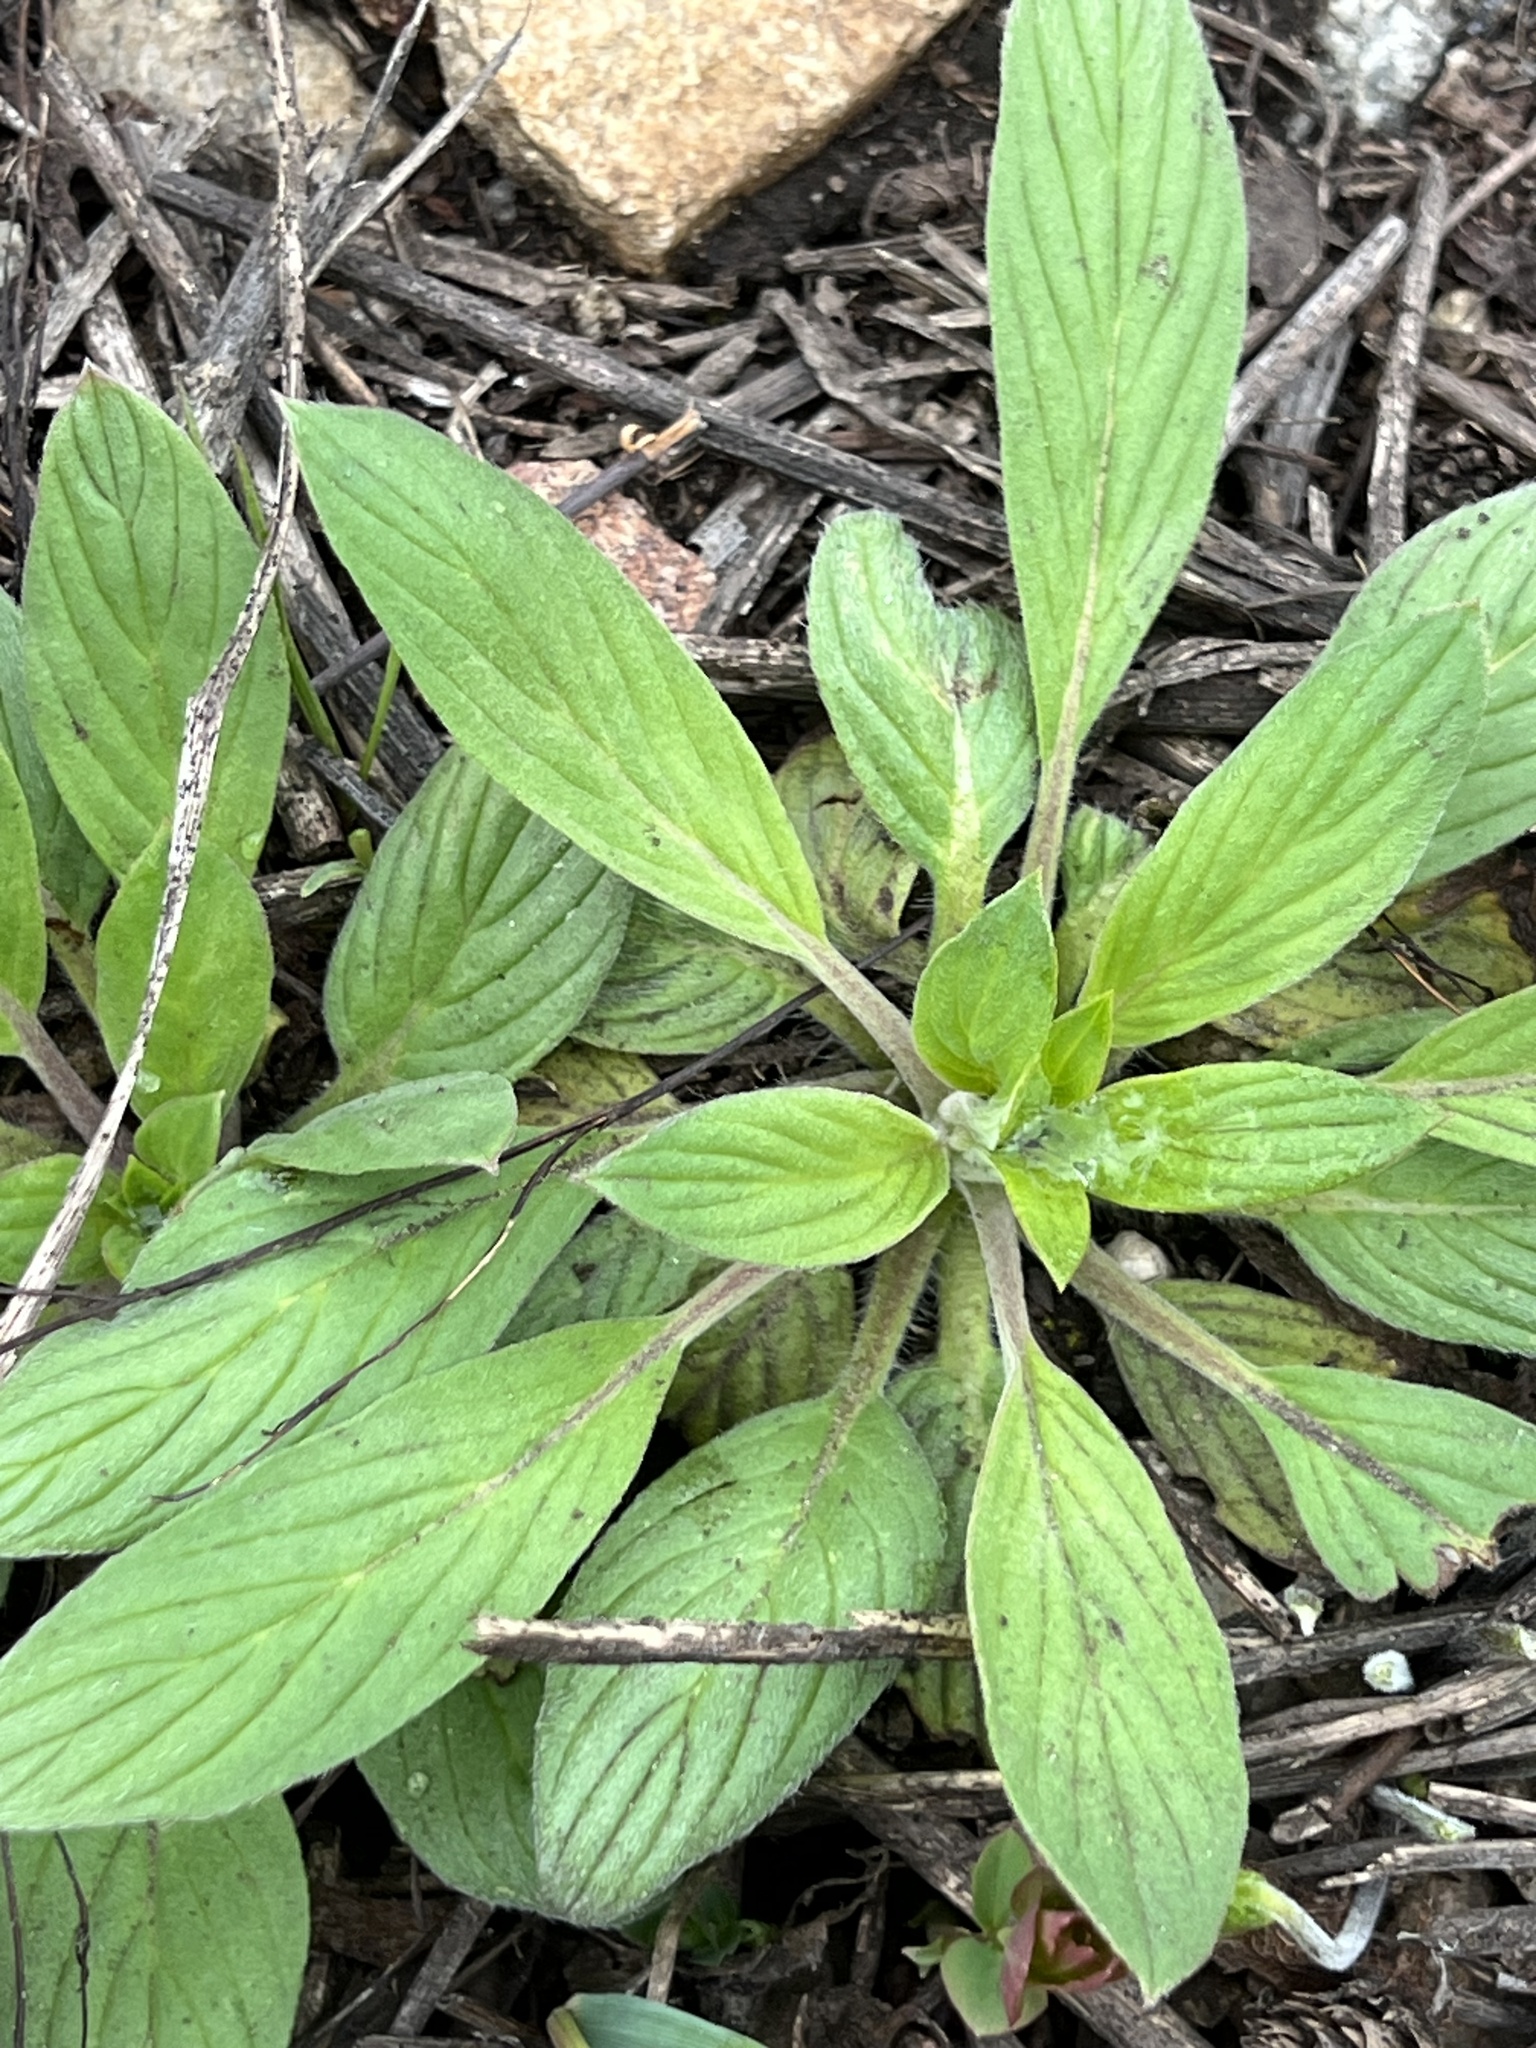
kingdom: Plantae
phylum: Tracheophyta
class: Magnoliopsida
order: Boraginales
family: Hydrophyllaceae
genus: Phacelia
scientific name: Phacelia hastata
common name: Silver-leaved phacelia
